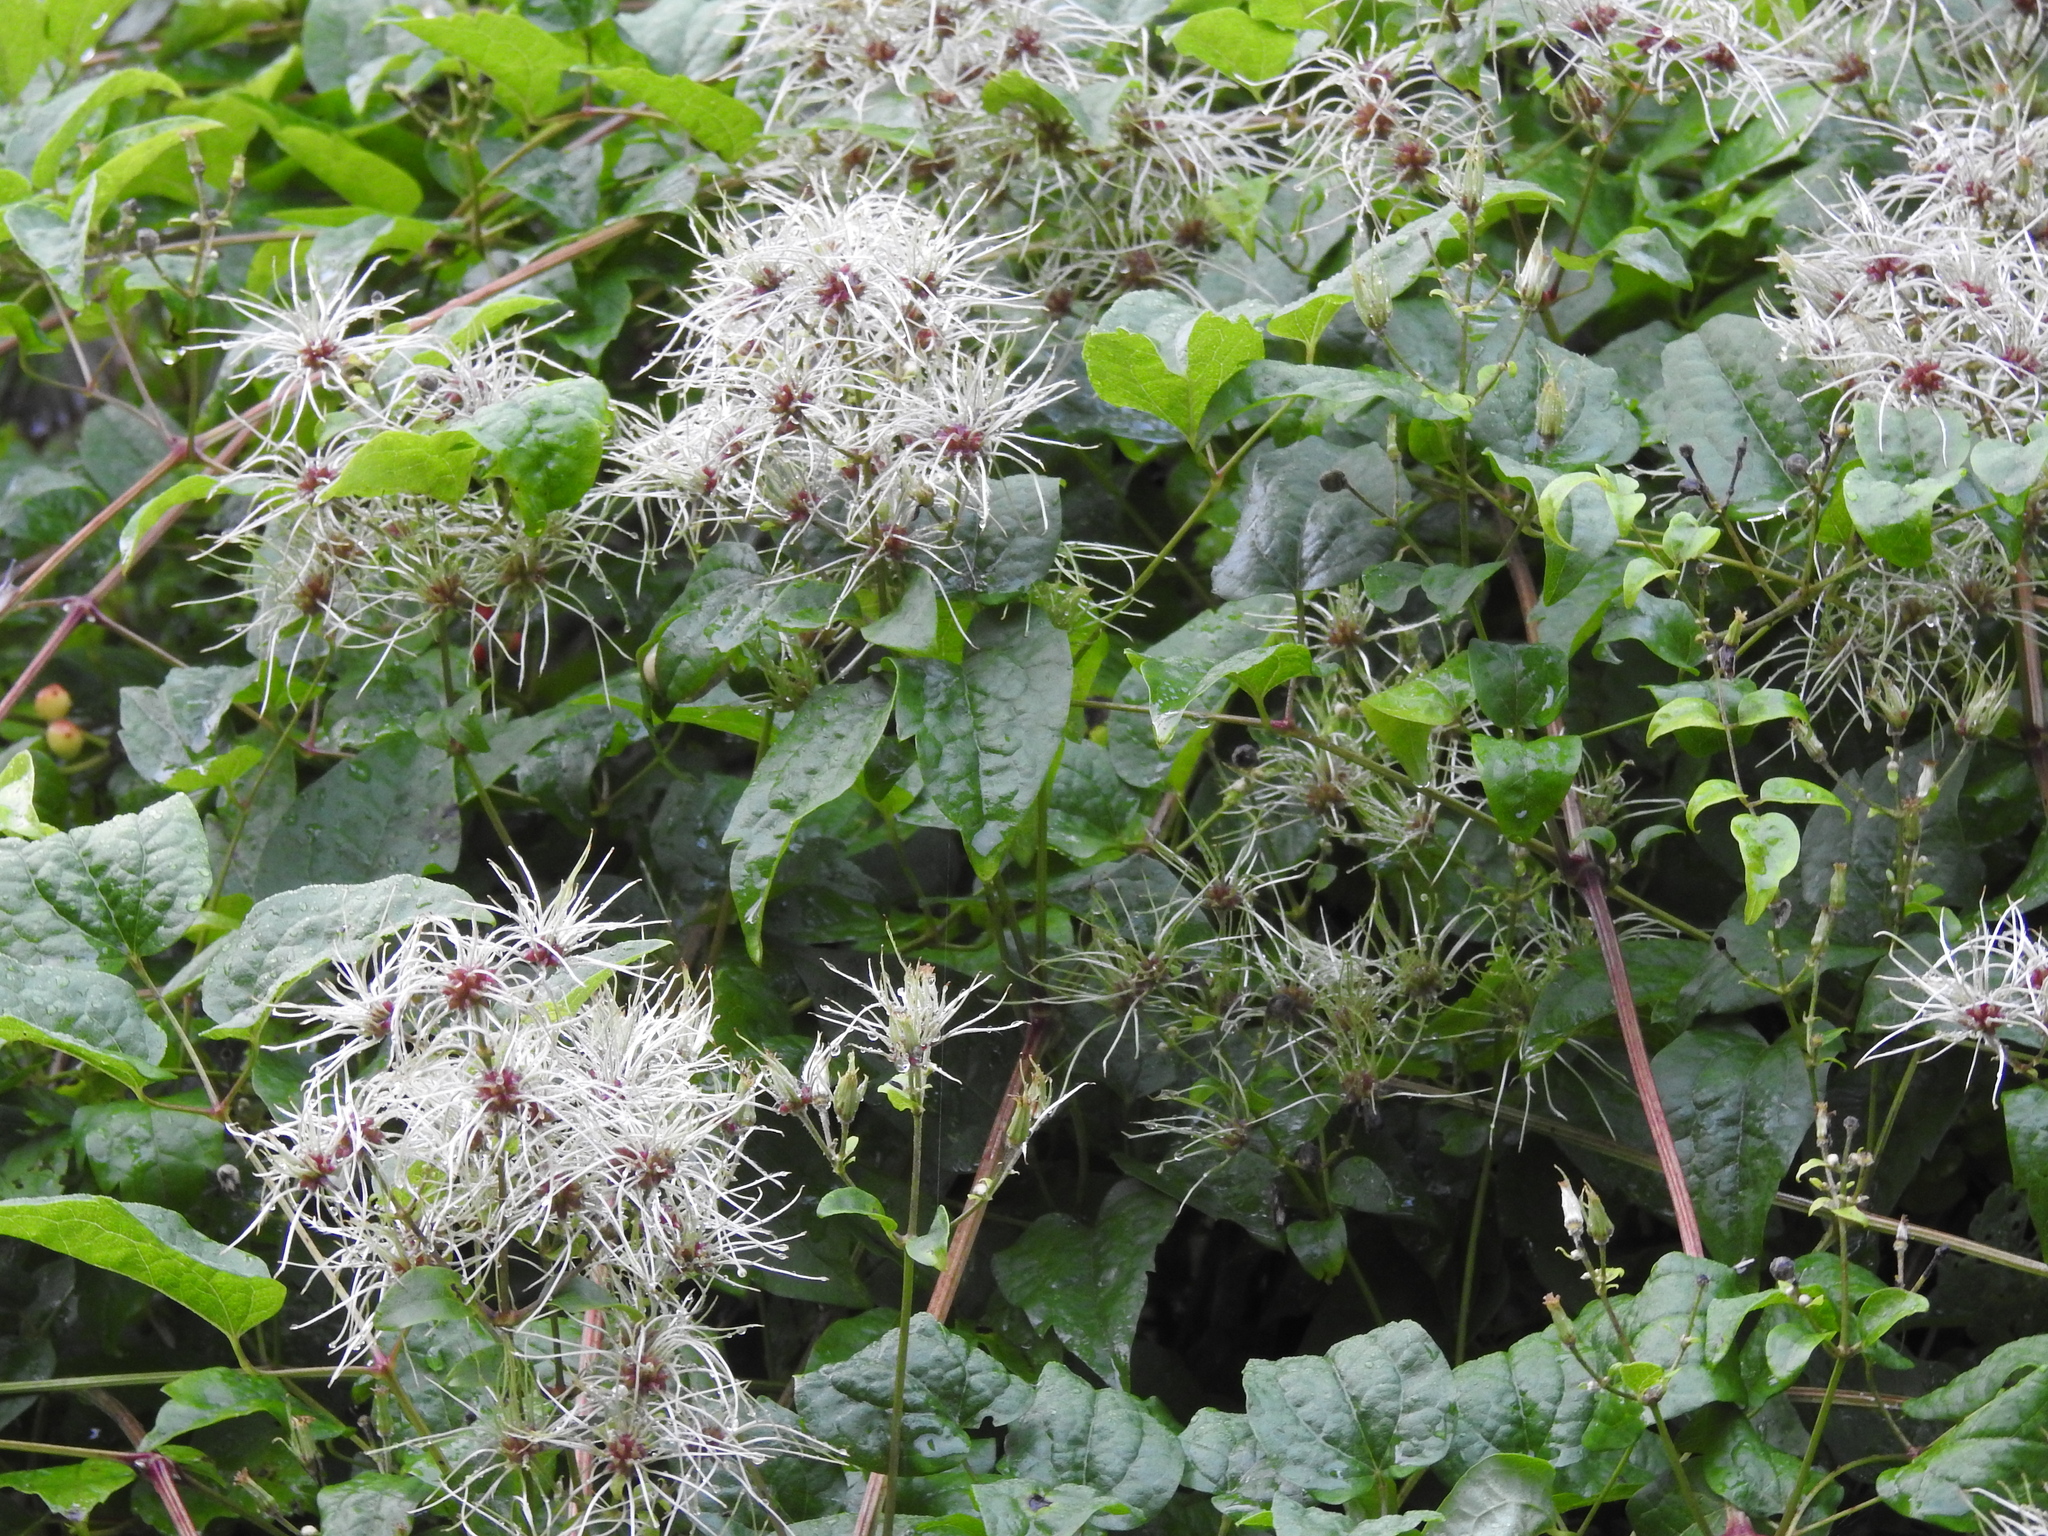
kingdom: Plantae
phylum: Tracheophyta
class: Magnoliopsida
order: Ranunculales
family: Ranunculaceae
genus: Clematis
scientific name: Clematis vitalba
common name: Evergreen clematis
